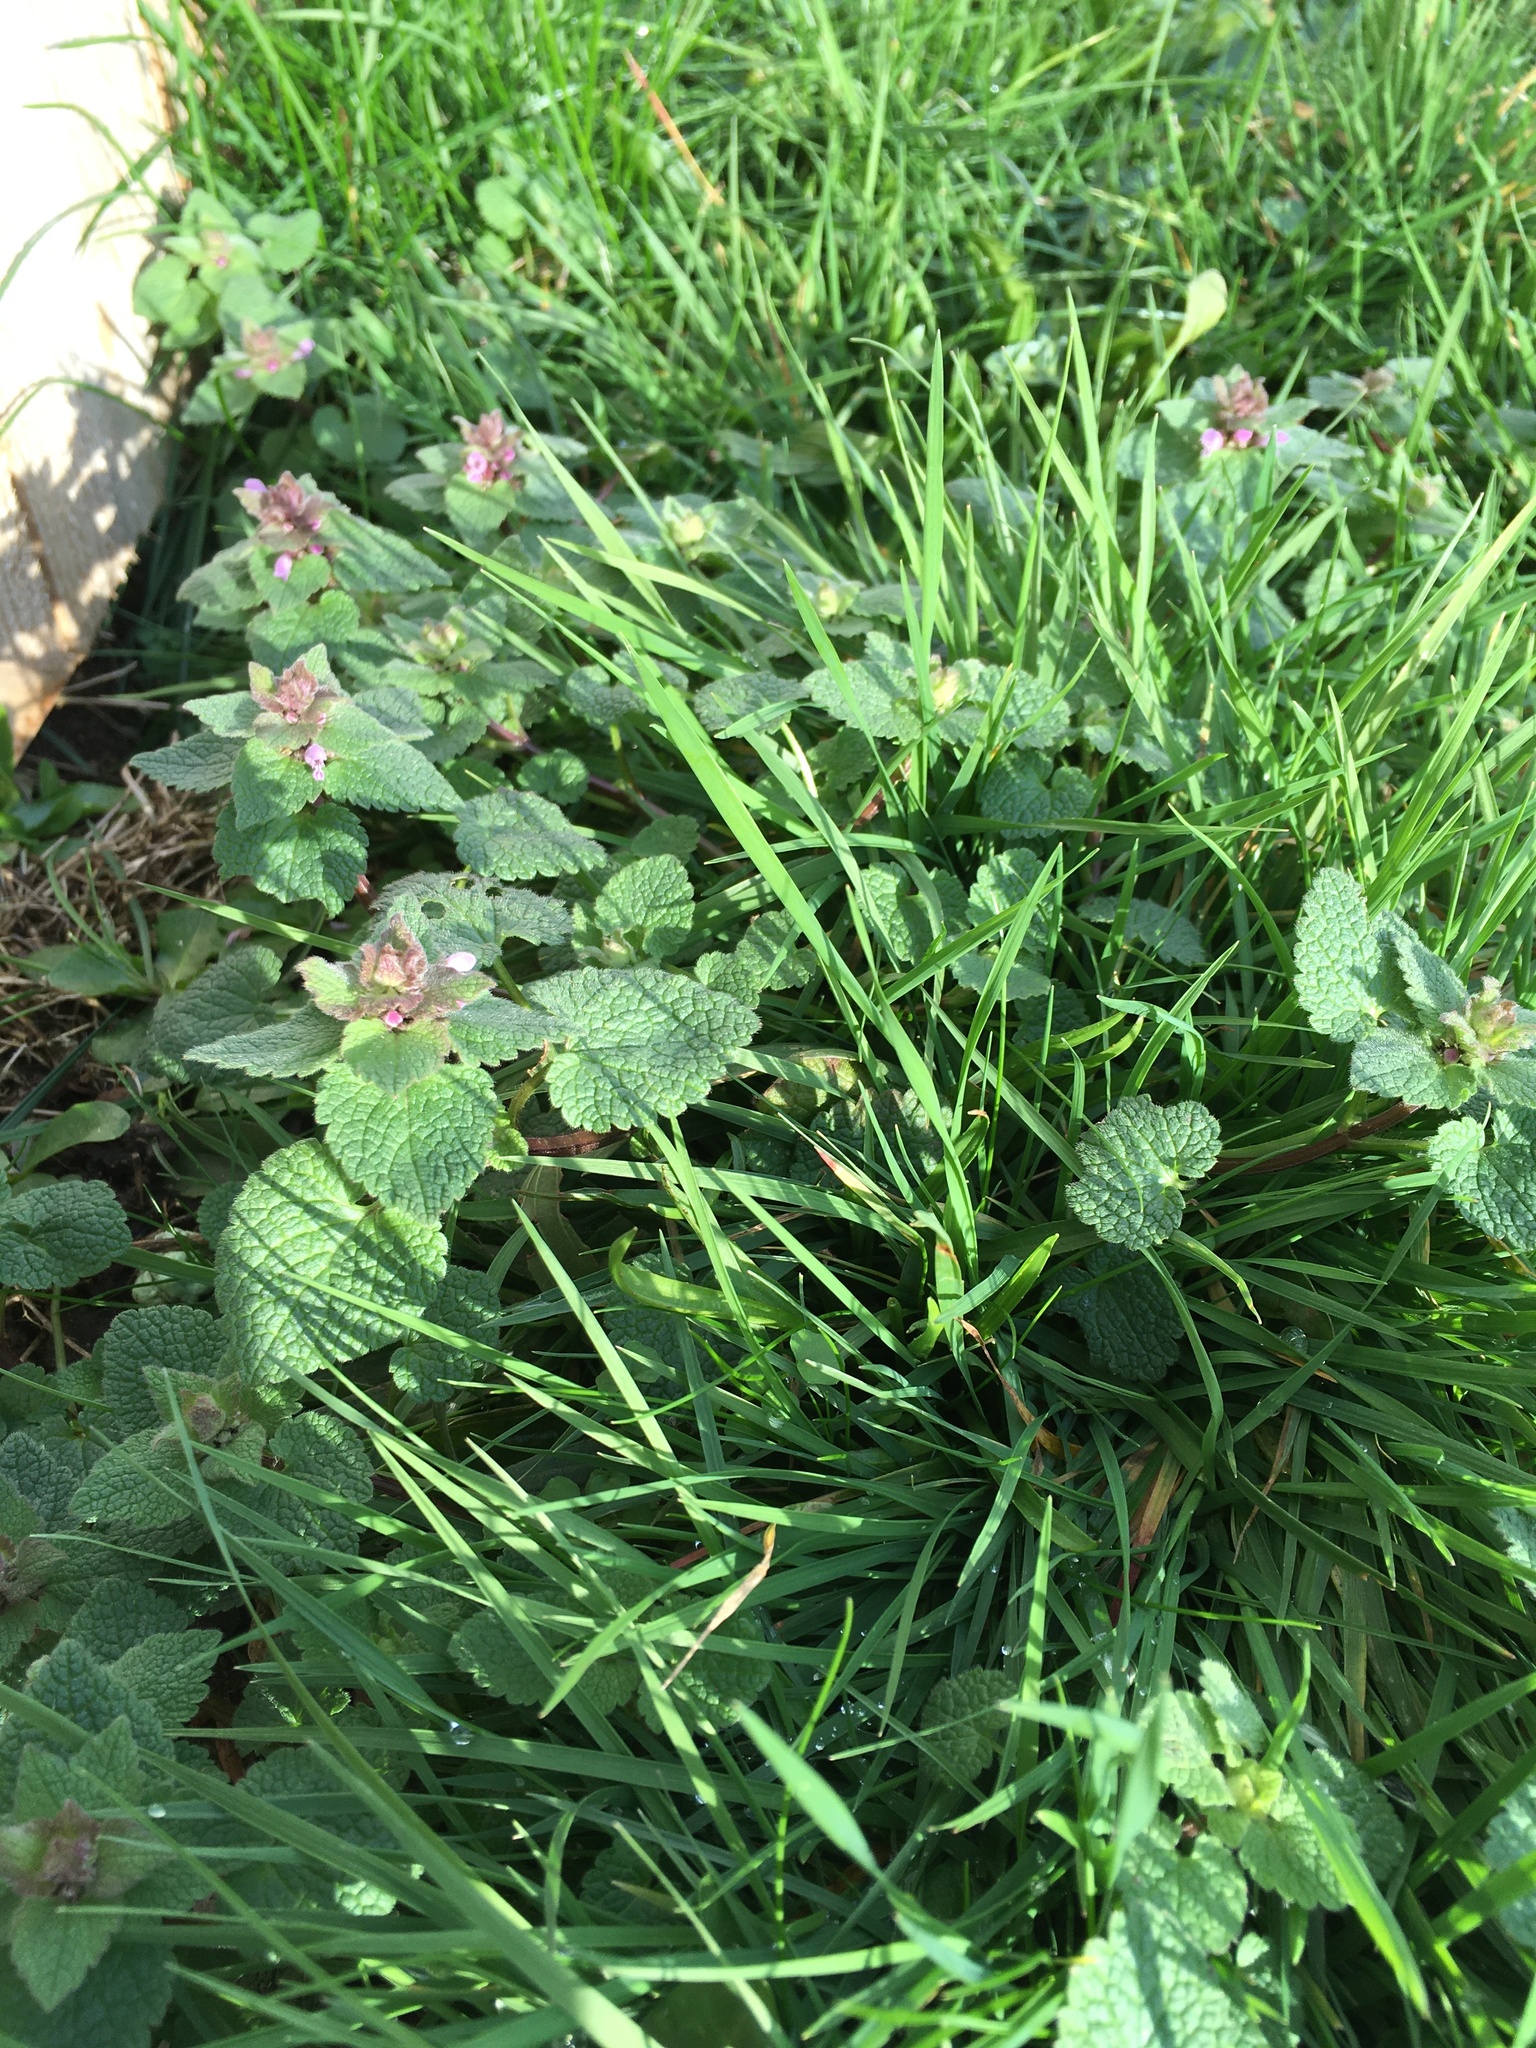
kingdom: Plantae
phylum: Tracheophyta
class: Magnoliopsida
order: Lamiales
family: Lamiaceae
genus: Lamium
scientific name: Lamium purpureum
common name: Red dead-nettle
